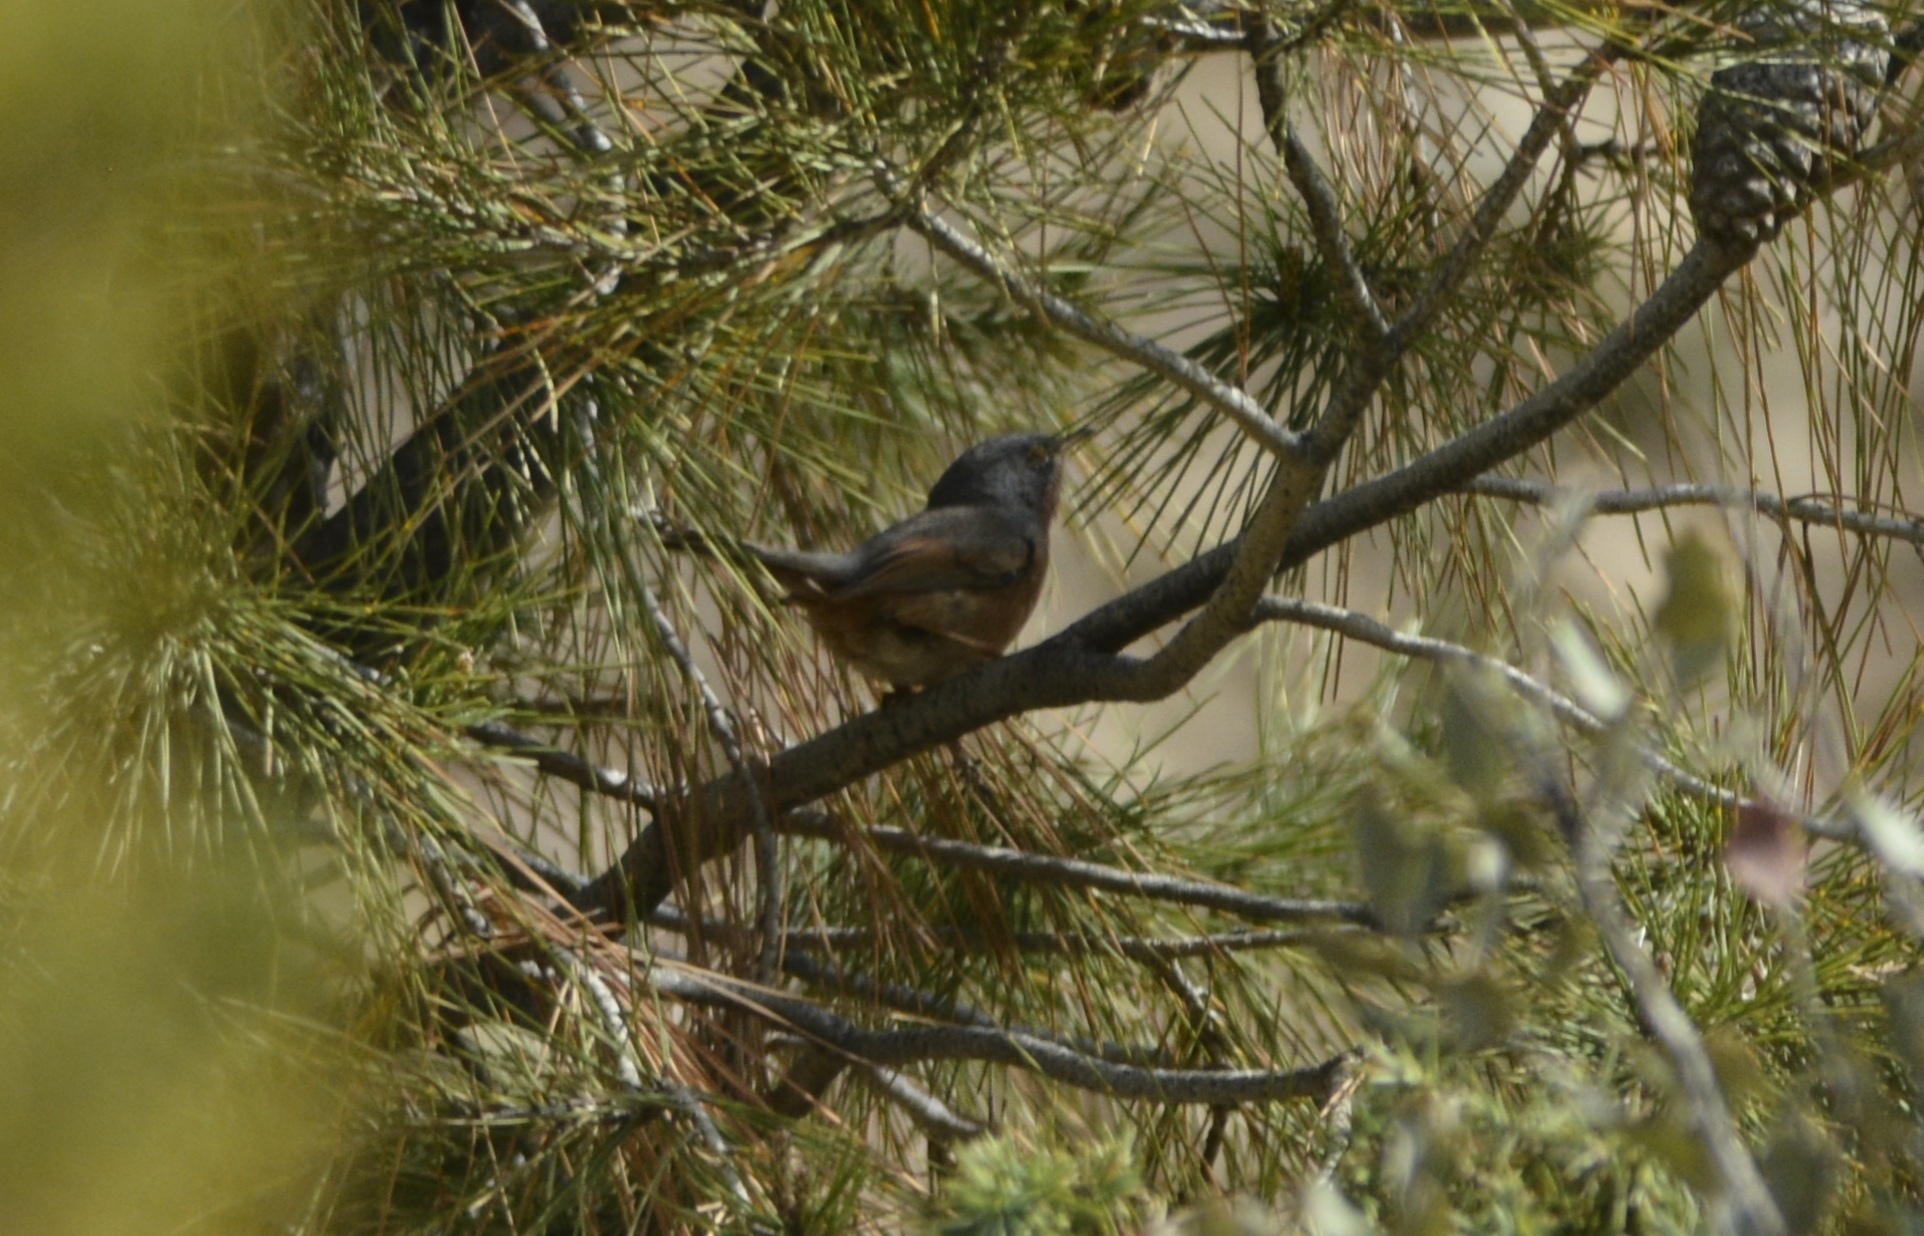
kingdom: Animalia
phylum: Chordata
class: Aves
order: Passeriformes
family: Sylviidae
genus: Sylvia
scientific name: Sylvia deserticola
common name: Tristram's warbler
